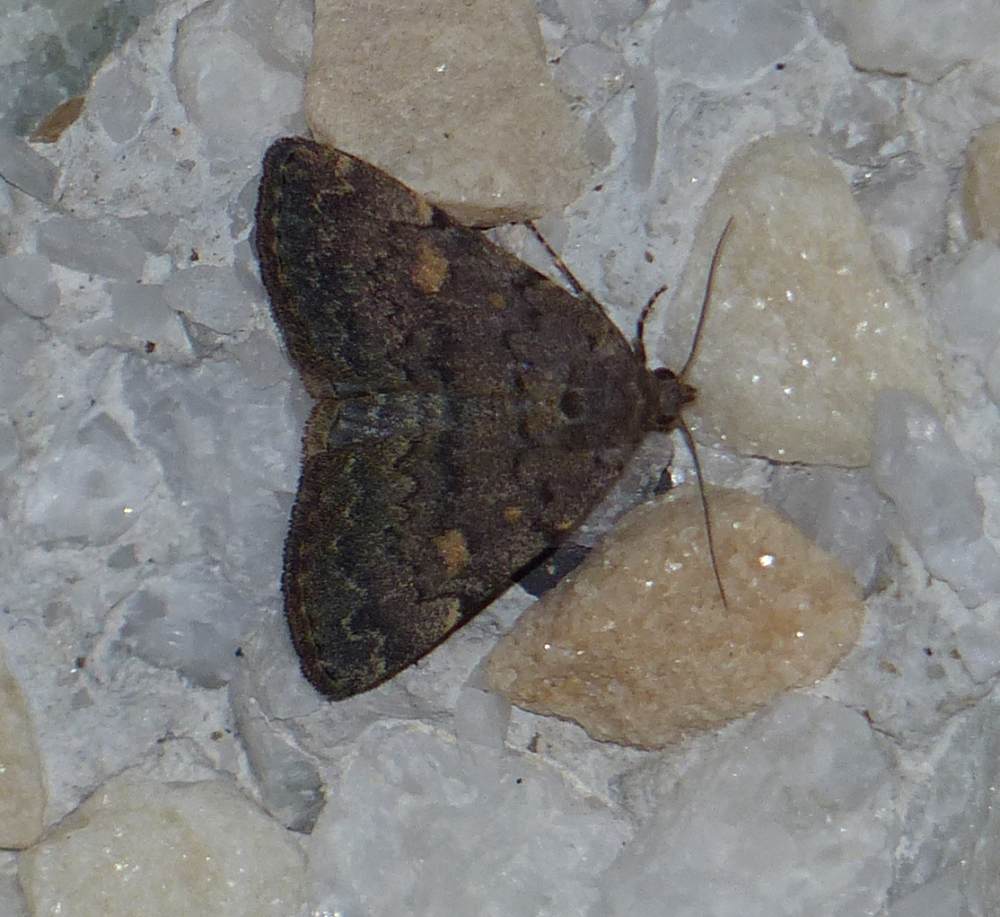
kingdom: Animalia
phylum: Arthropoda
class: Insecta
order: Lepidoptera
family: Erebidae
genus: Idia
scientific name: Idia aemula
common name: Common idia moth
